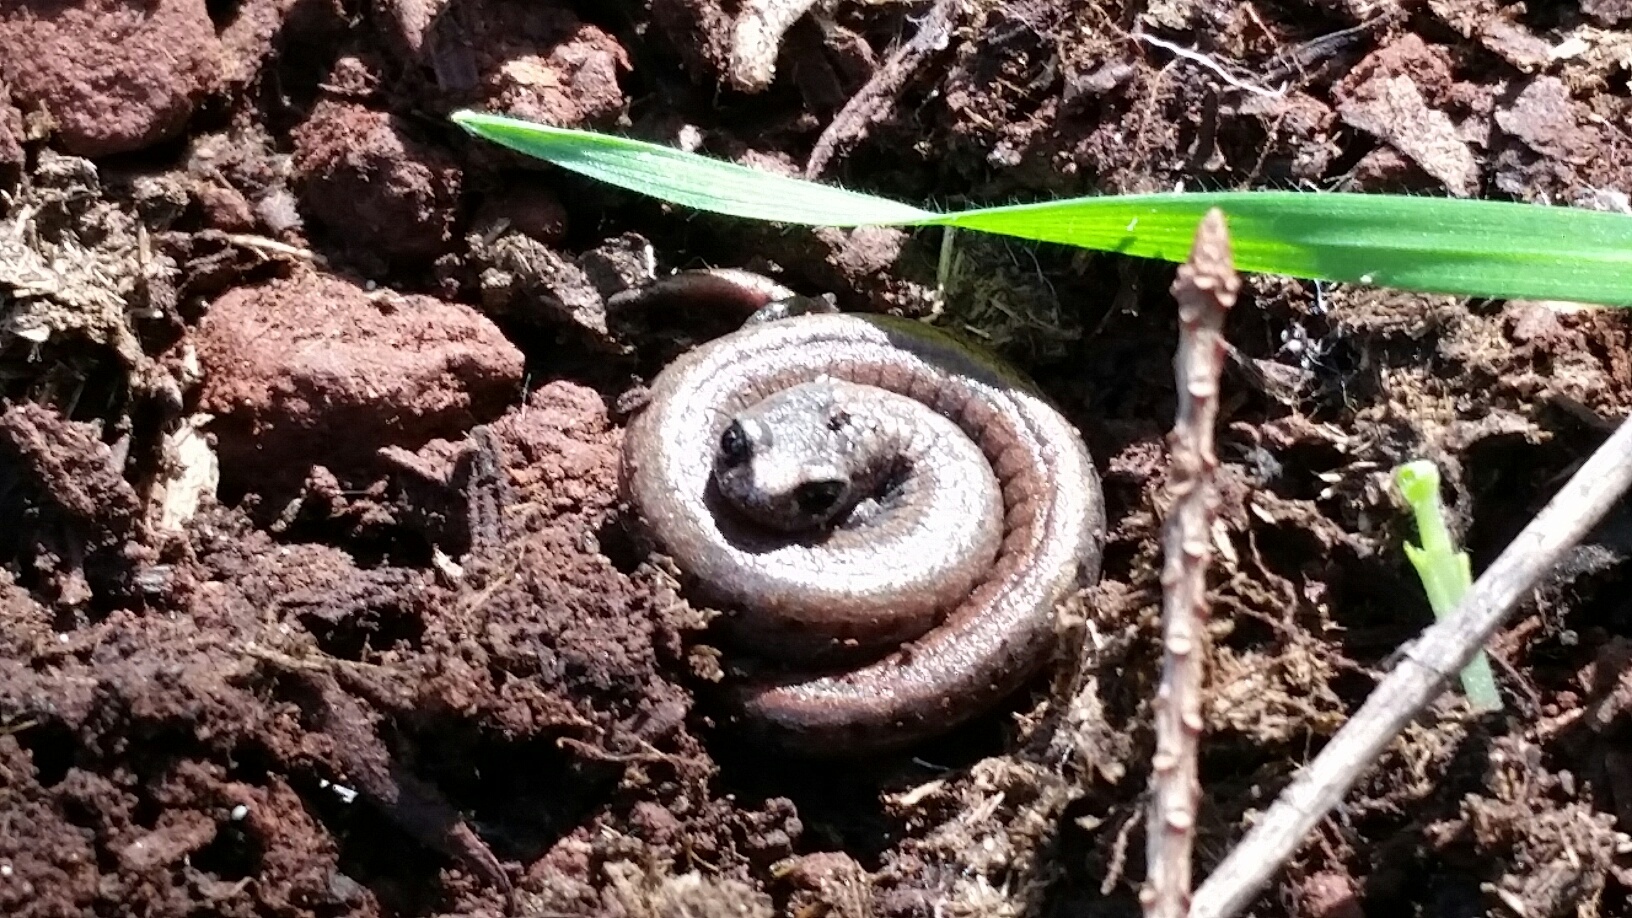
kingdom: Animalia
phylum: Chordata
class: Amphibia
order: Caudata
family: Plethodontidae
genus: Batrachoseps
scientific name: Batrachoseps attenuatus
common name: California slender salamander
